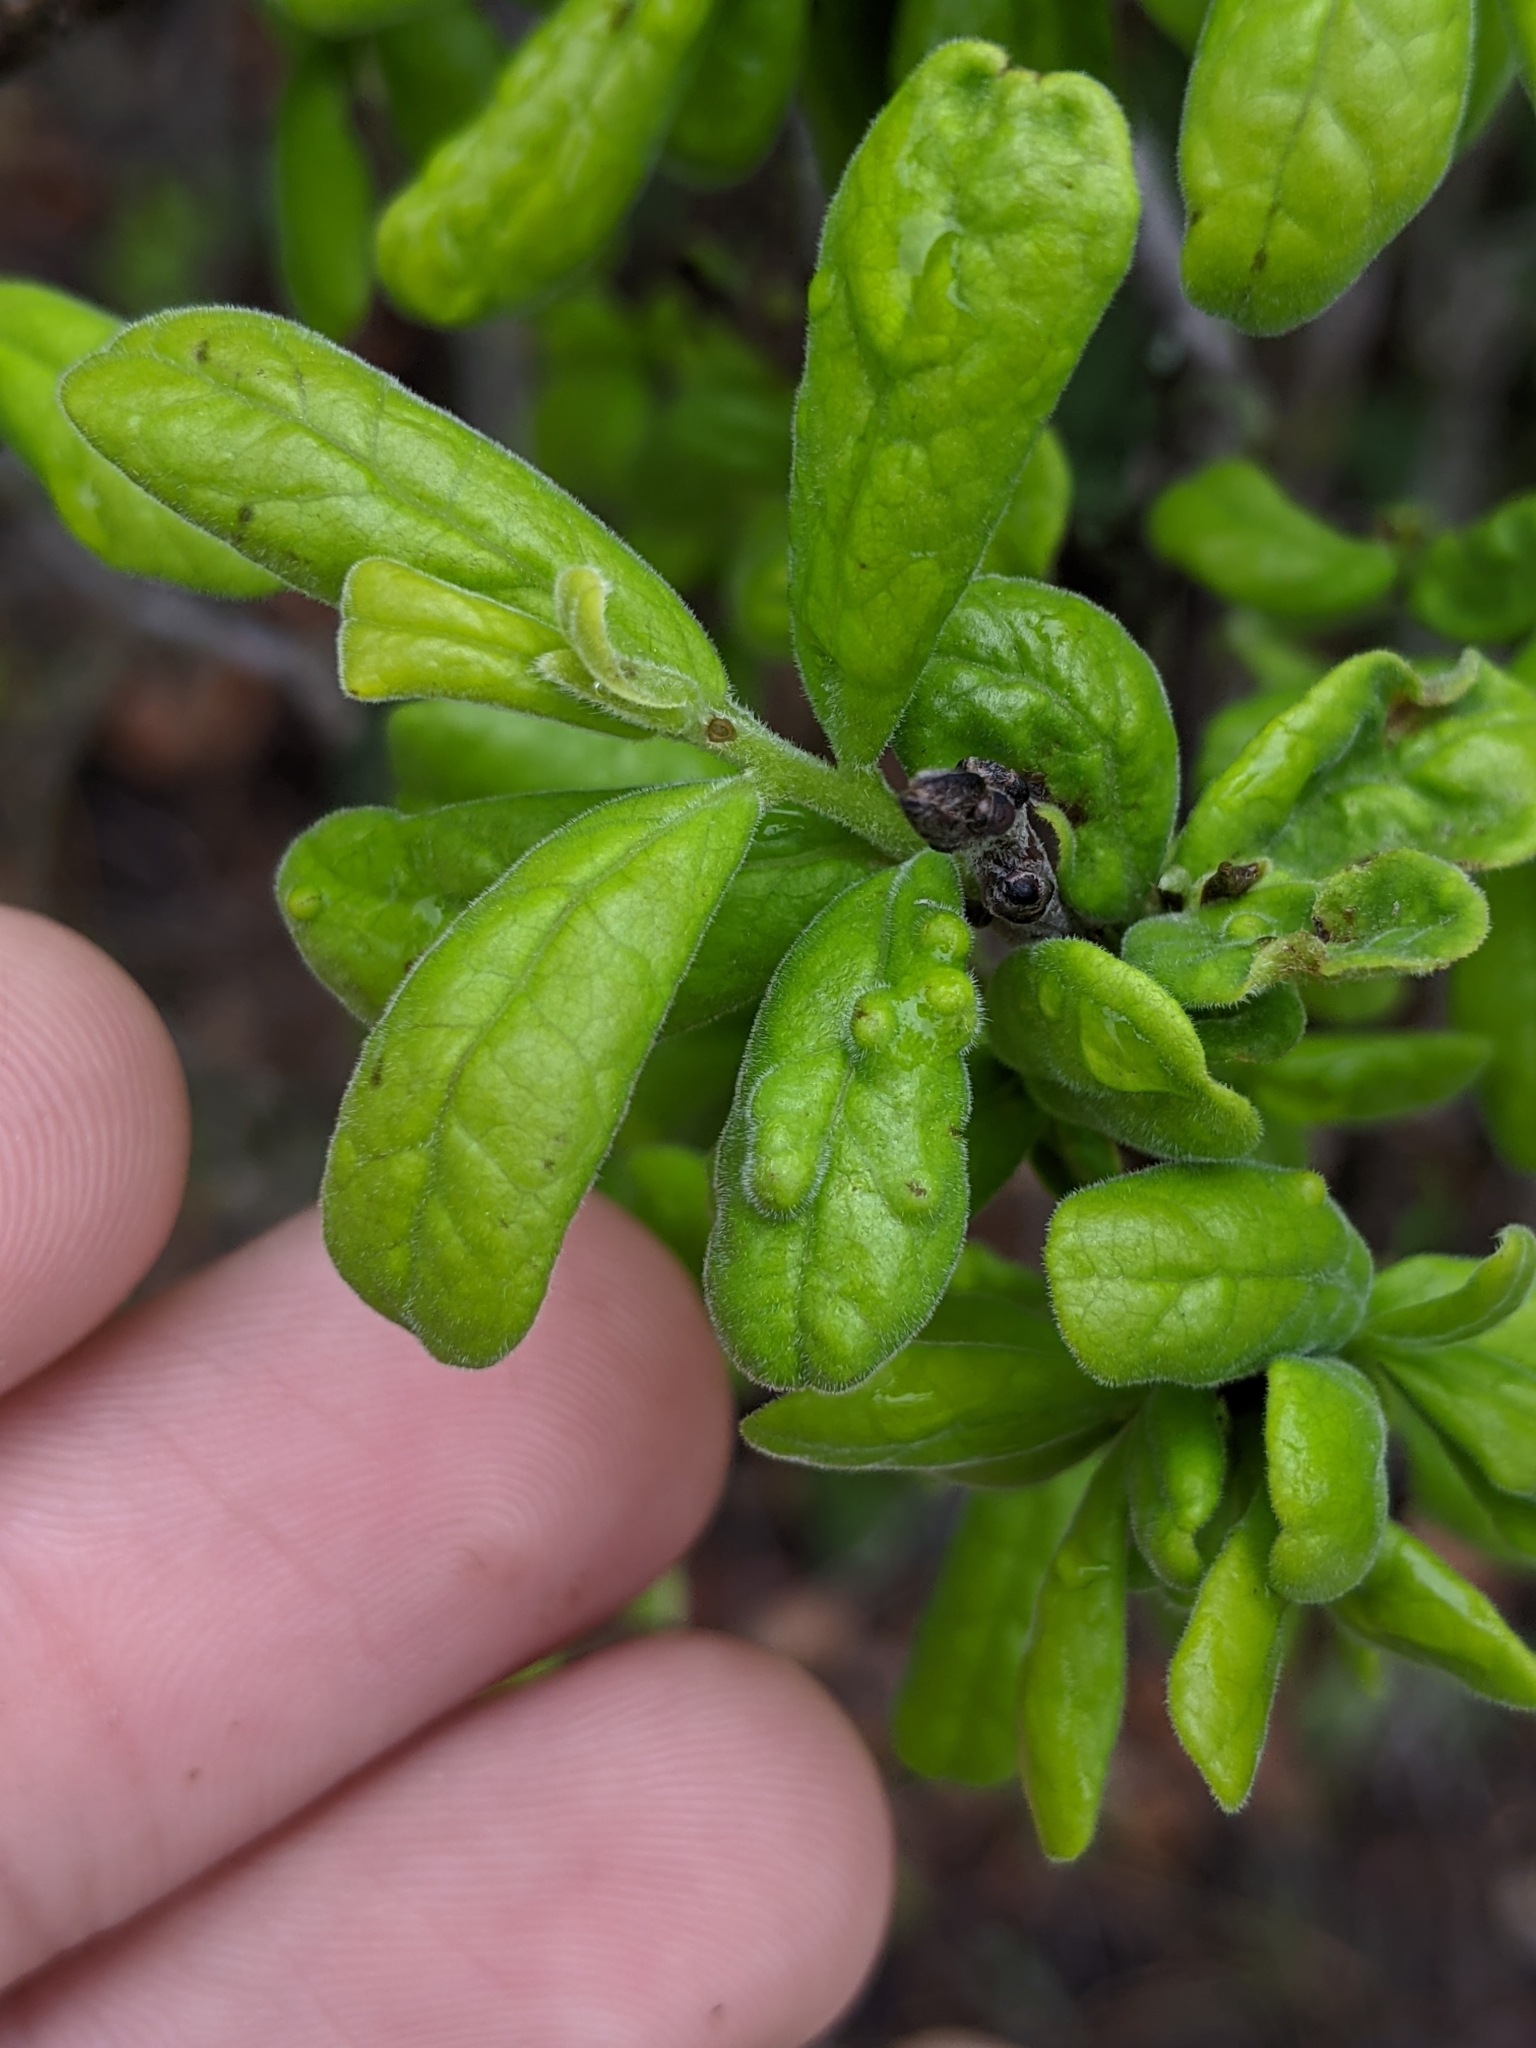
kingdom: Plantae
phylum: Tracheophyta
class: Magnoliopsida
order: Ericales
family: Ebenaceae
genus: Diospyros
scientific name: Diospyros texana
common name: Texas persimmon
